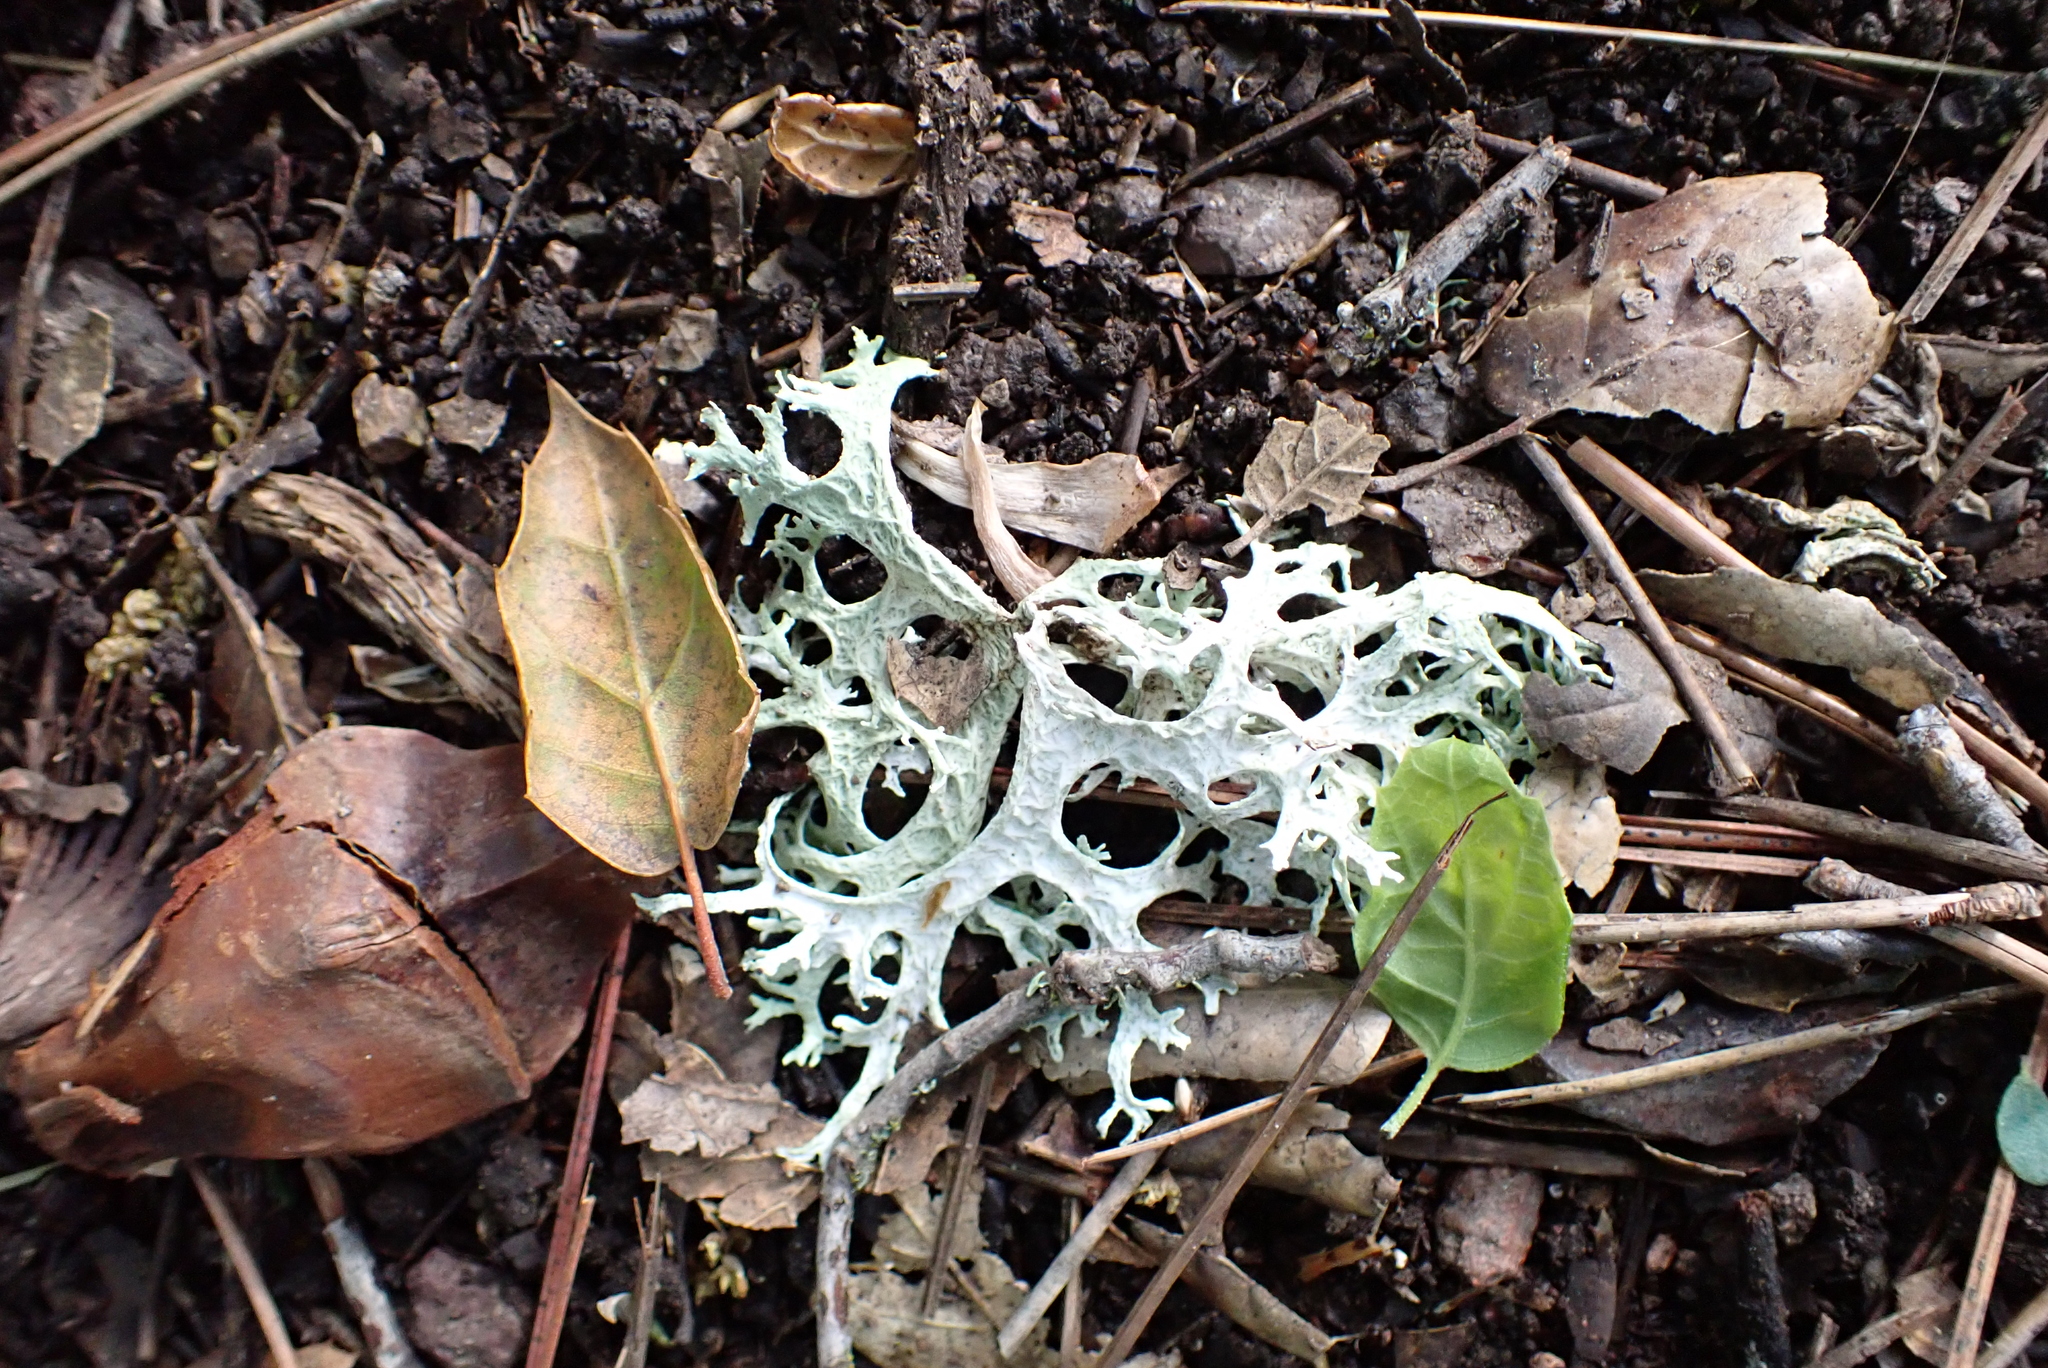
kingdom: Fungi
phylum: Ascomycota
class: Lecanoromycetes
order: Lecanorales
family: Parmeliaceae
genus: Evernia
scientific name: Evernia prunastri
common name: Oak moss
